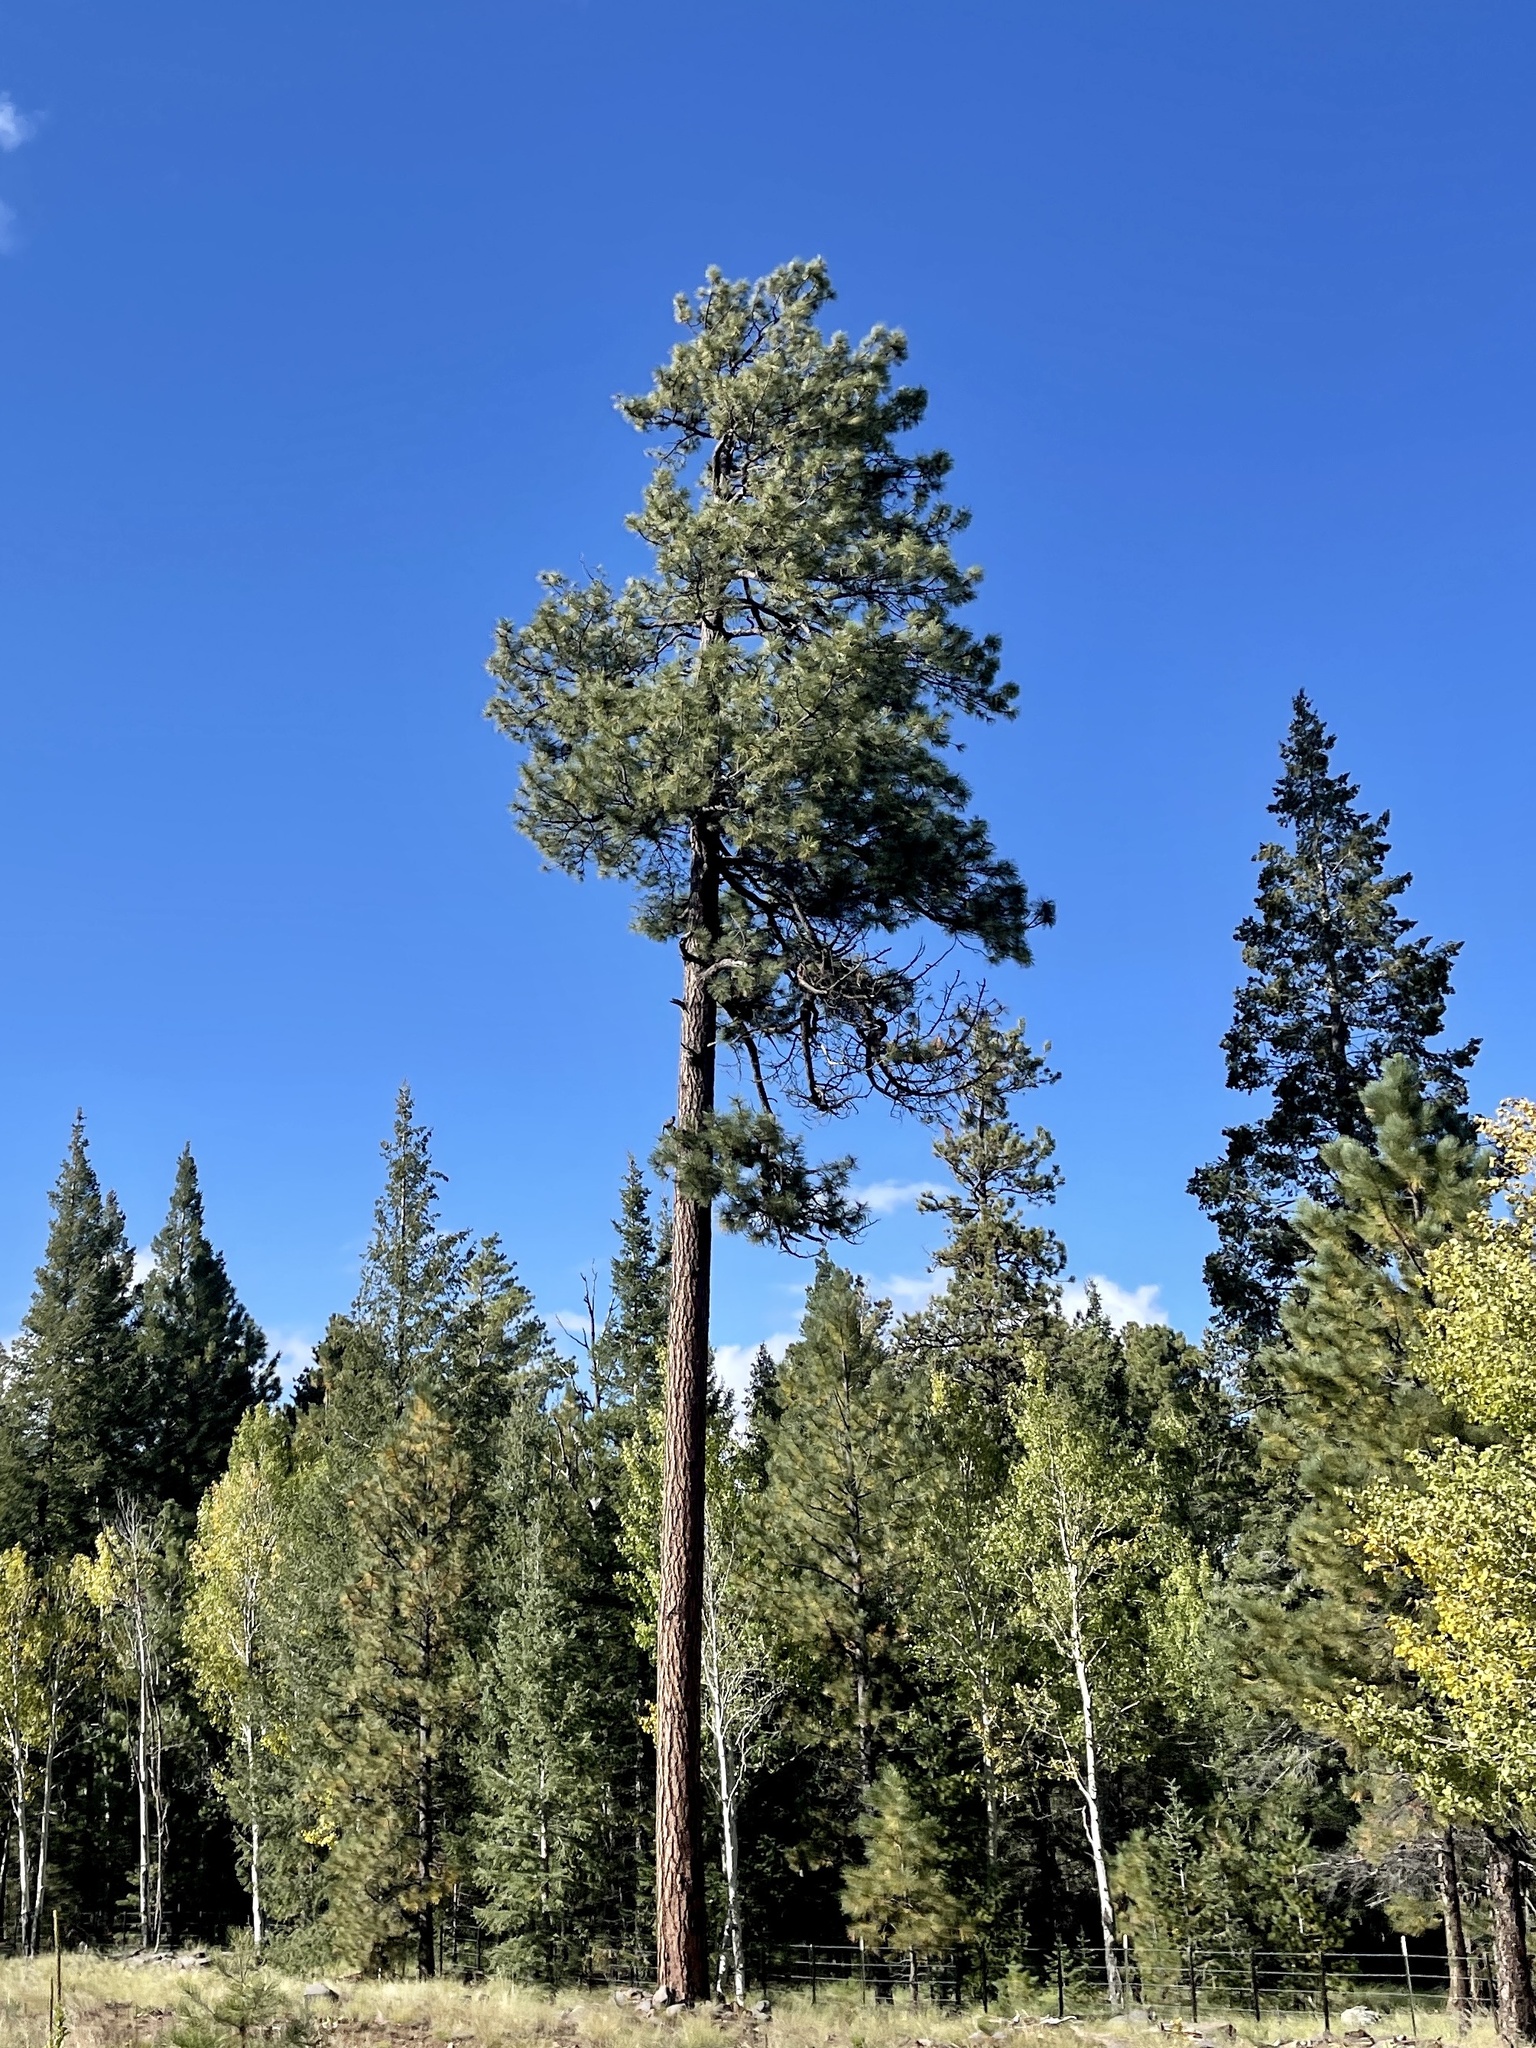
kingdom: Plantae
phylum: Tracheophyta
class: Pinopsida
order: Pinales
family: Pinaceae
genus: Pinus
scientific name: Pinus ponderosa
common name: Western yellow-pine
